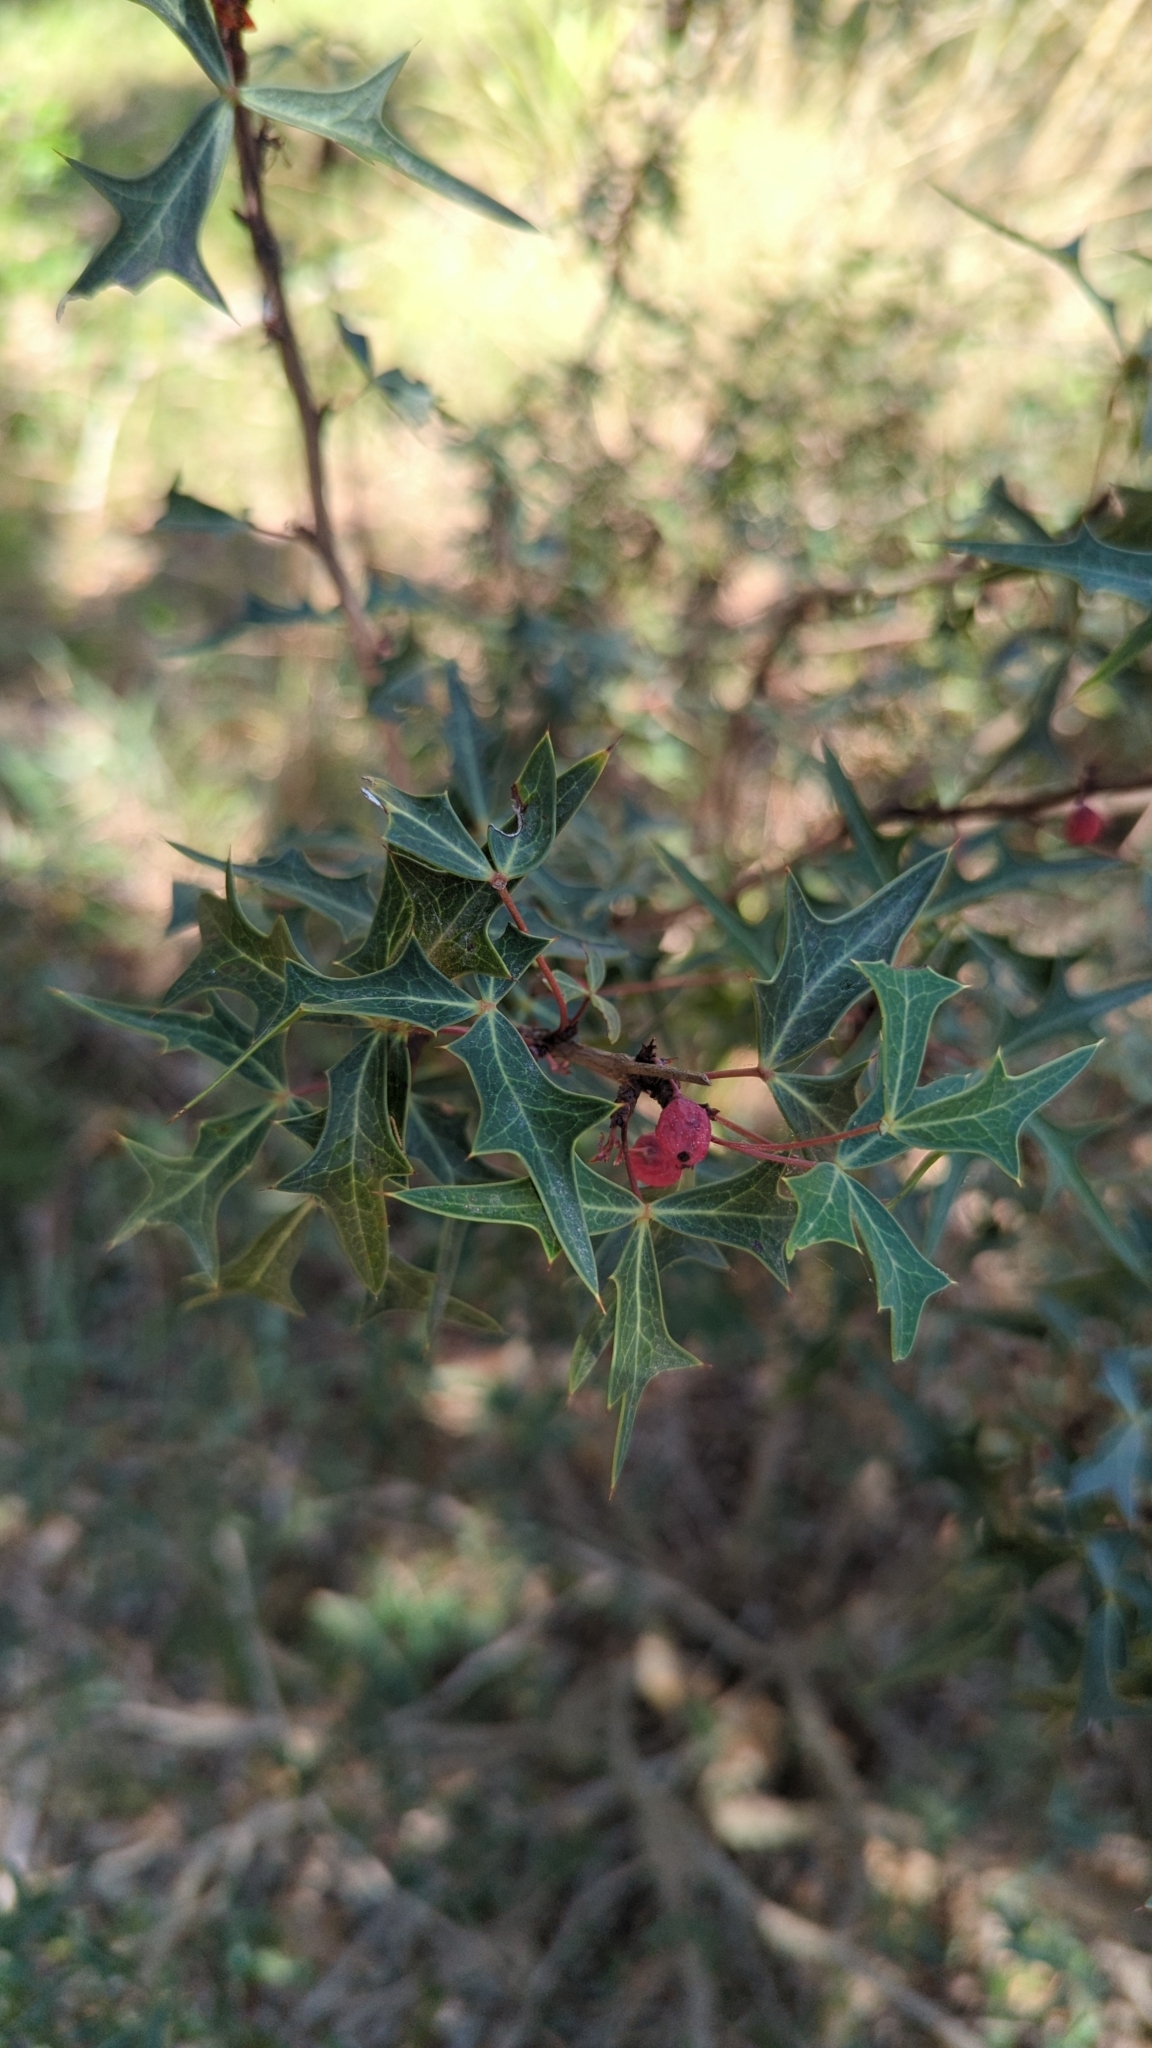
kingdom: Plantae
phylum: Tracheophyta
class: Magnoliopsida
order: Ranunculales
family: Berberidaceae
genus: Alloberberis
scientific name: Alloberberis trifoliolata
